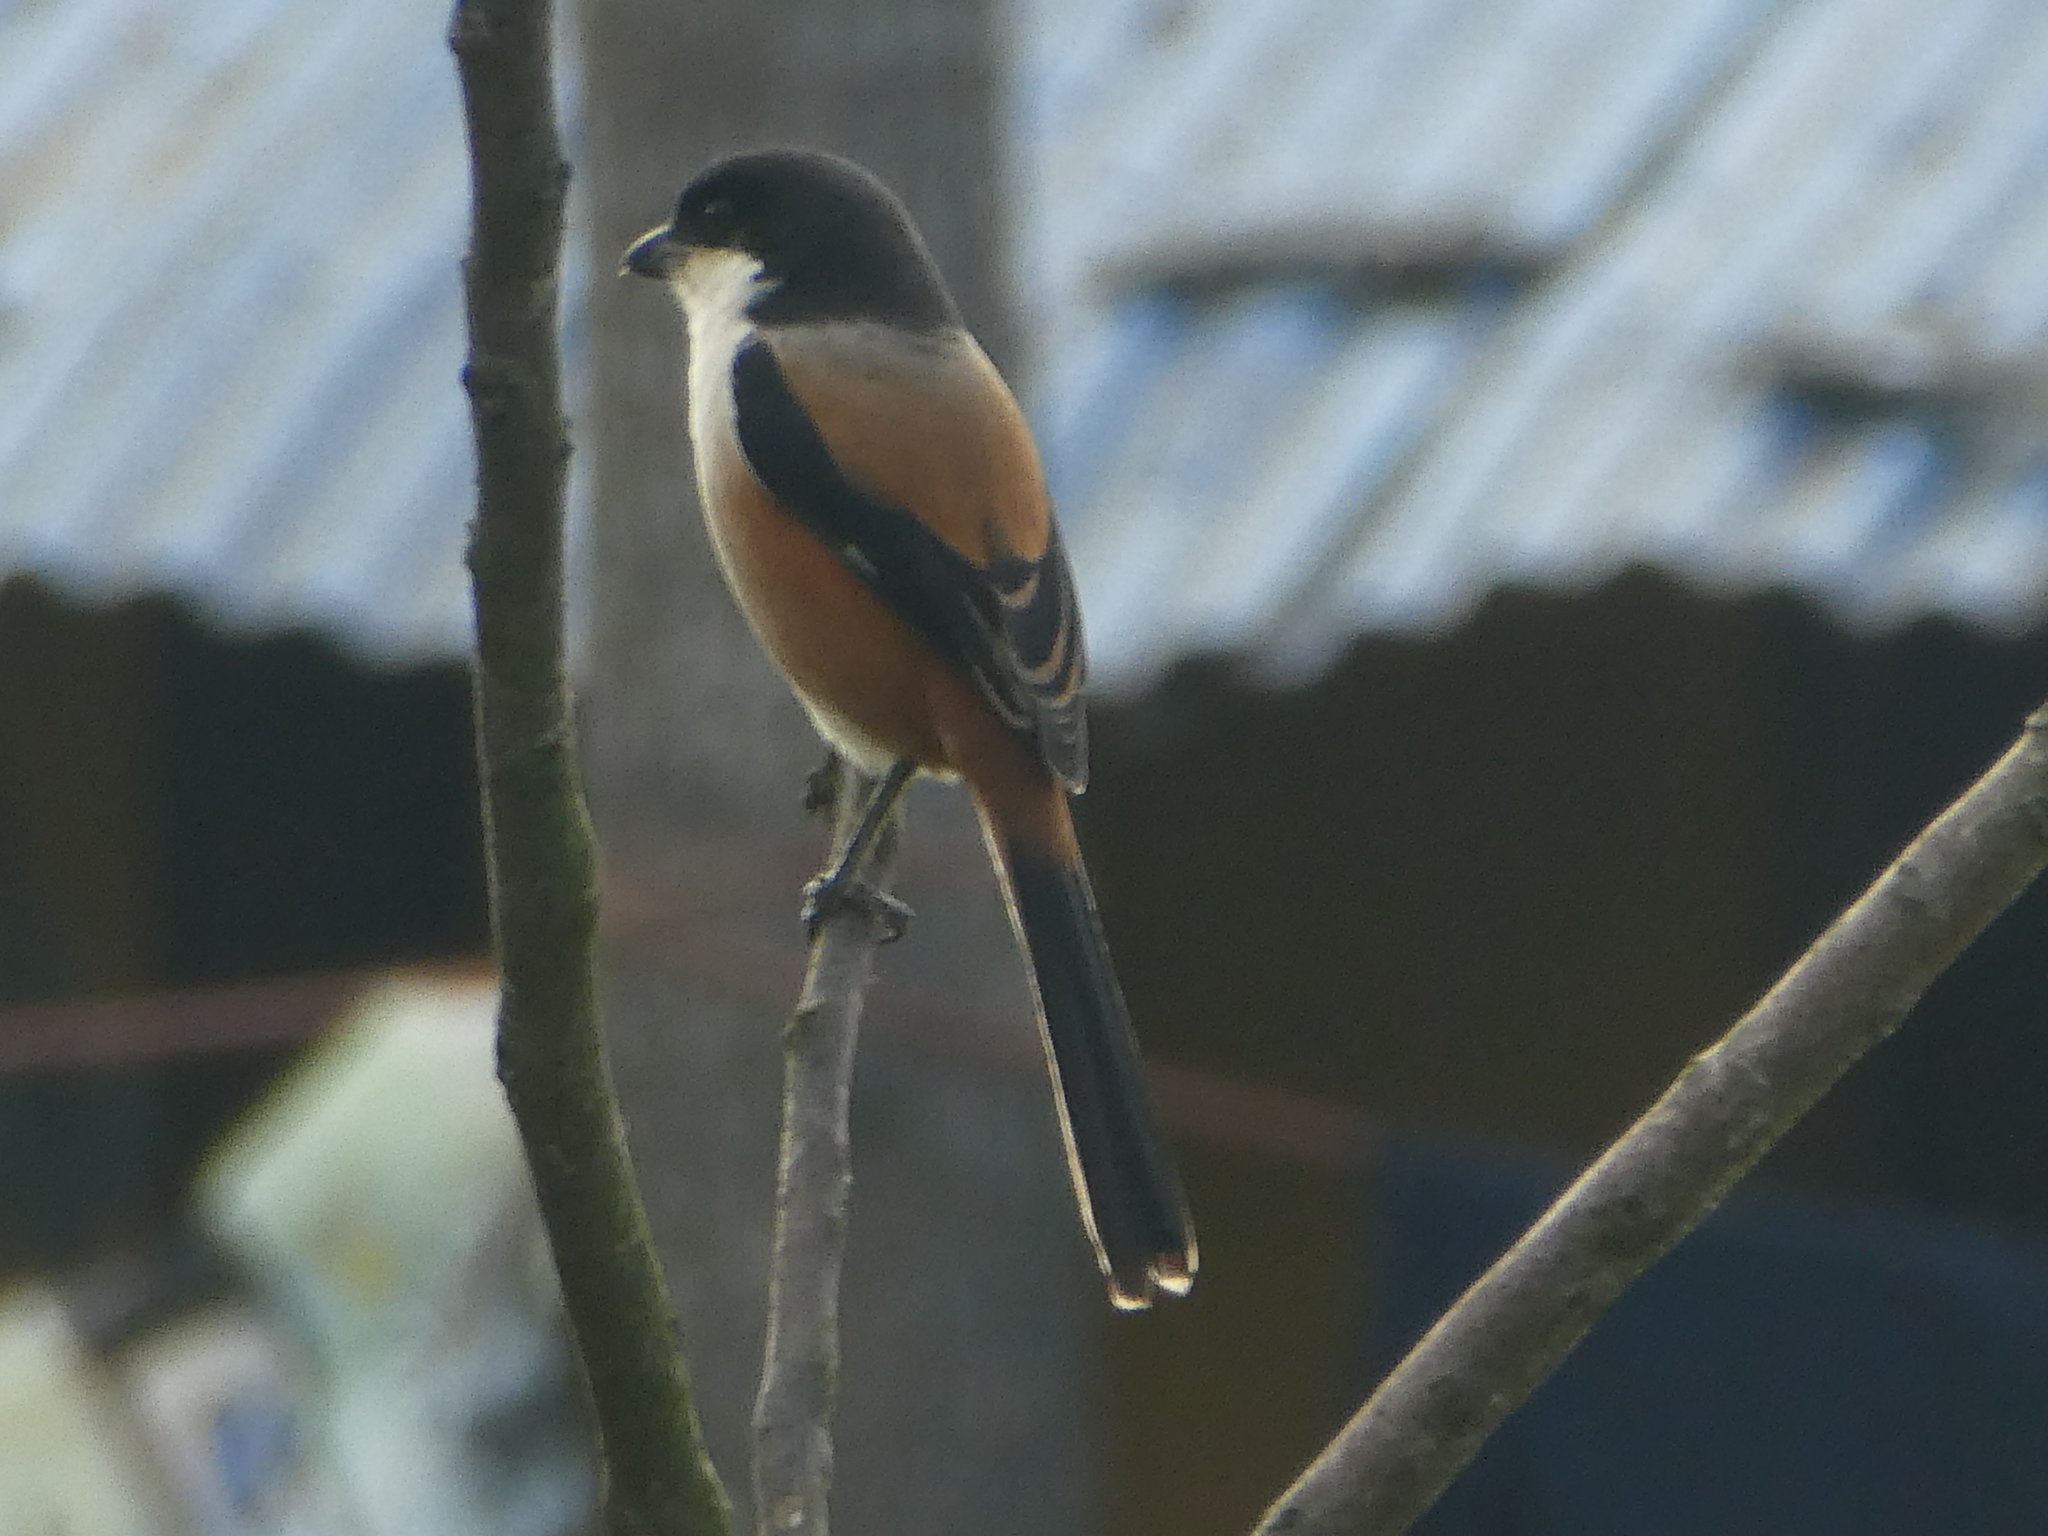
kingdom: Animalia
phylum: Chordata
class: Aves
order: Passeriformes
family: Laniidae
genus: Lanius
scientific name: Lanius schach
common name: Long-tailed shrike
